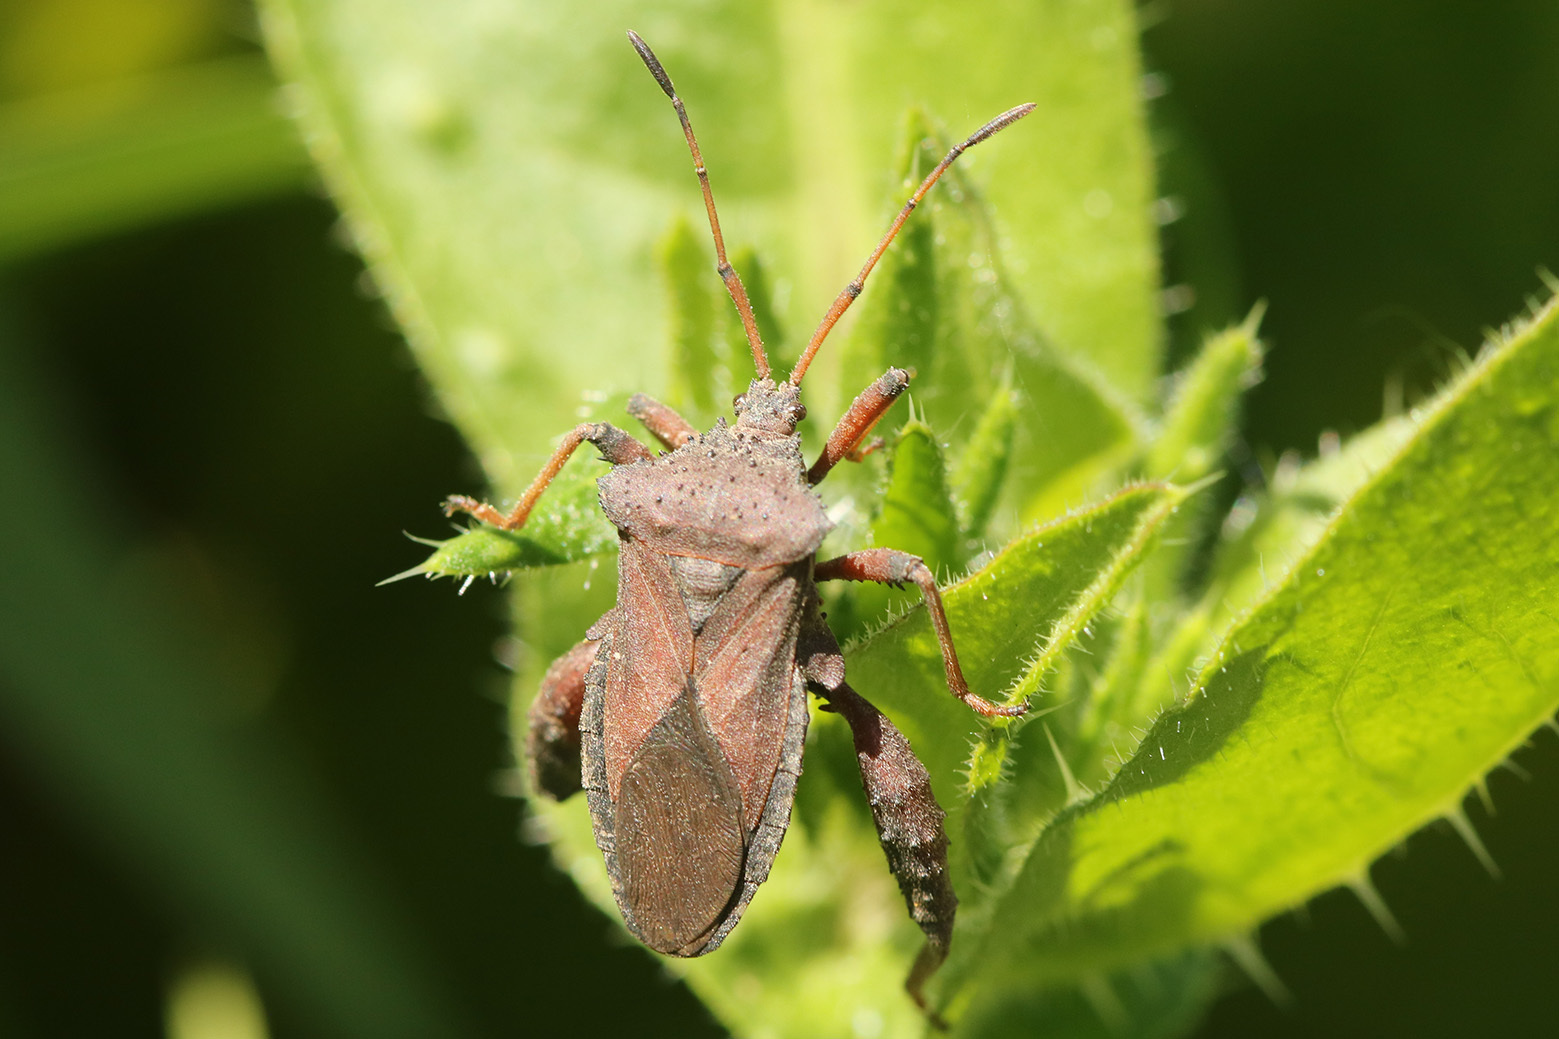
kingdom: Animalia
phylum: Arthropoda
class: Insecta
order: Hemiptera
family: Coreidae
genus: Camptischium
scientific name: Camptischium clavipes
